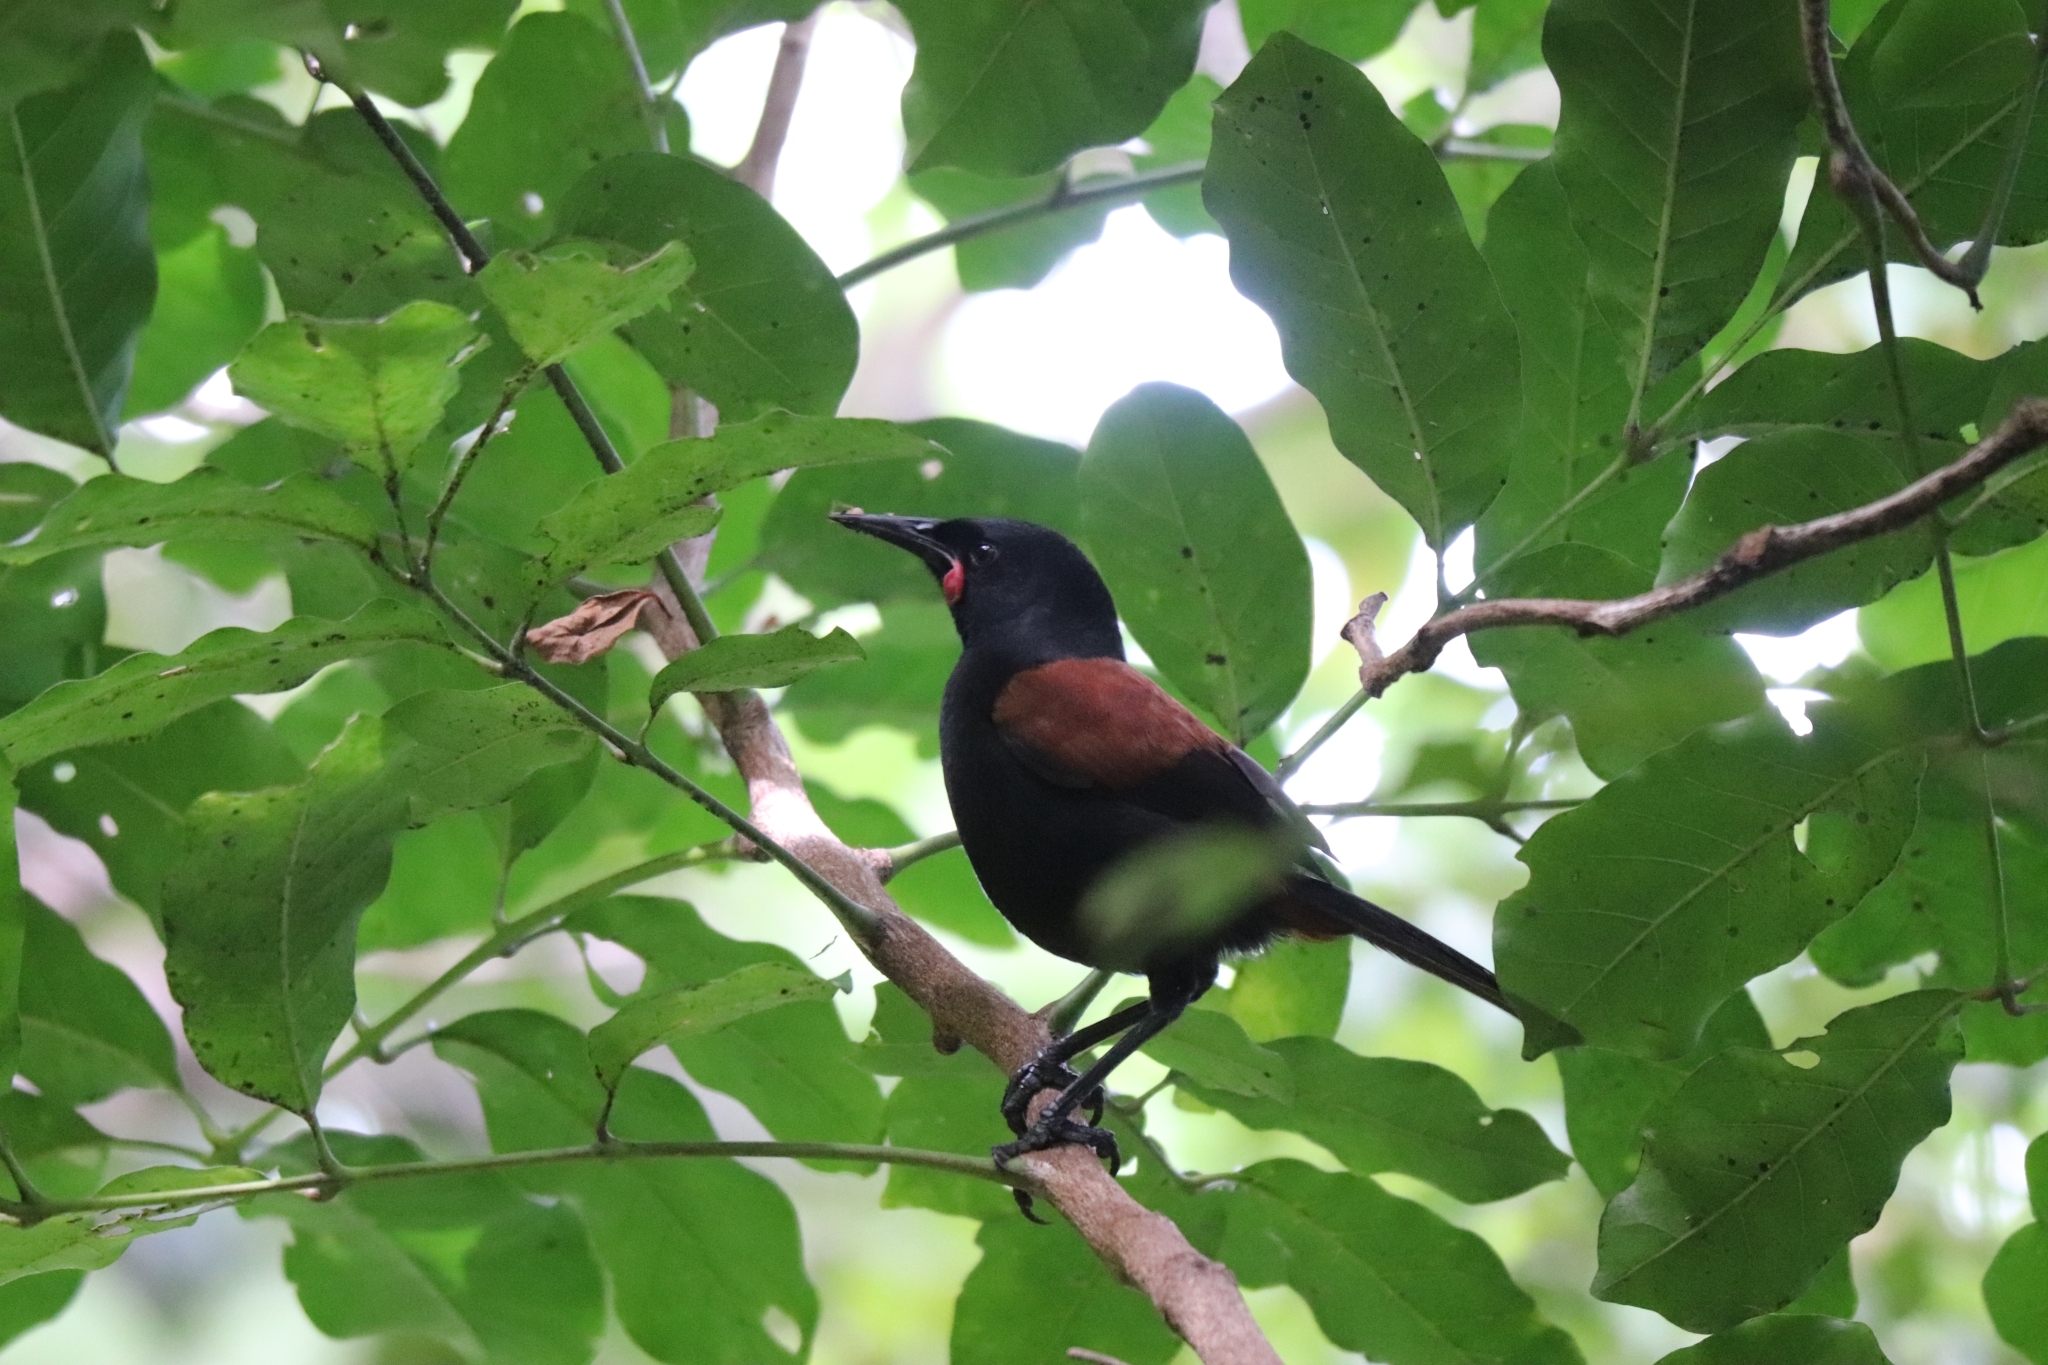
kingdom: Animalia
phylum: Chordata
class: Aves
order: Passeriformes
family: Callaeatidae
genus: Philesturnus
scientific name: Philesturnus carunculatus
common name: South island saddleback
